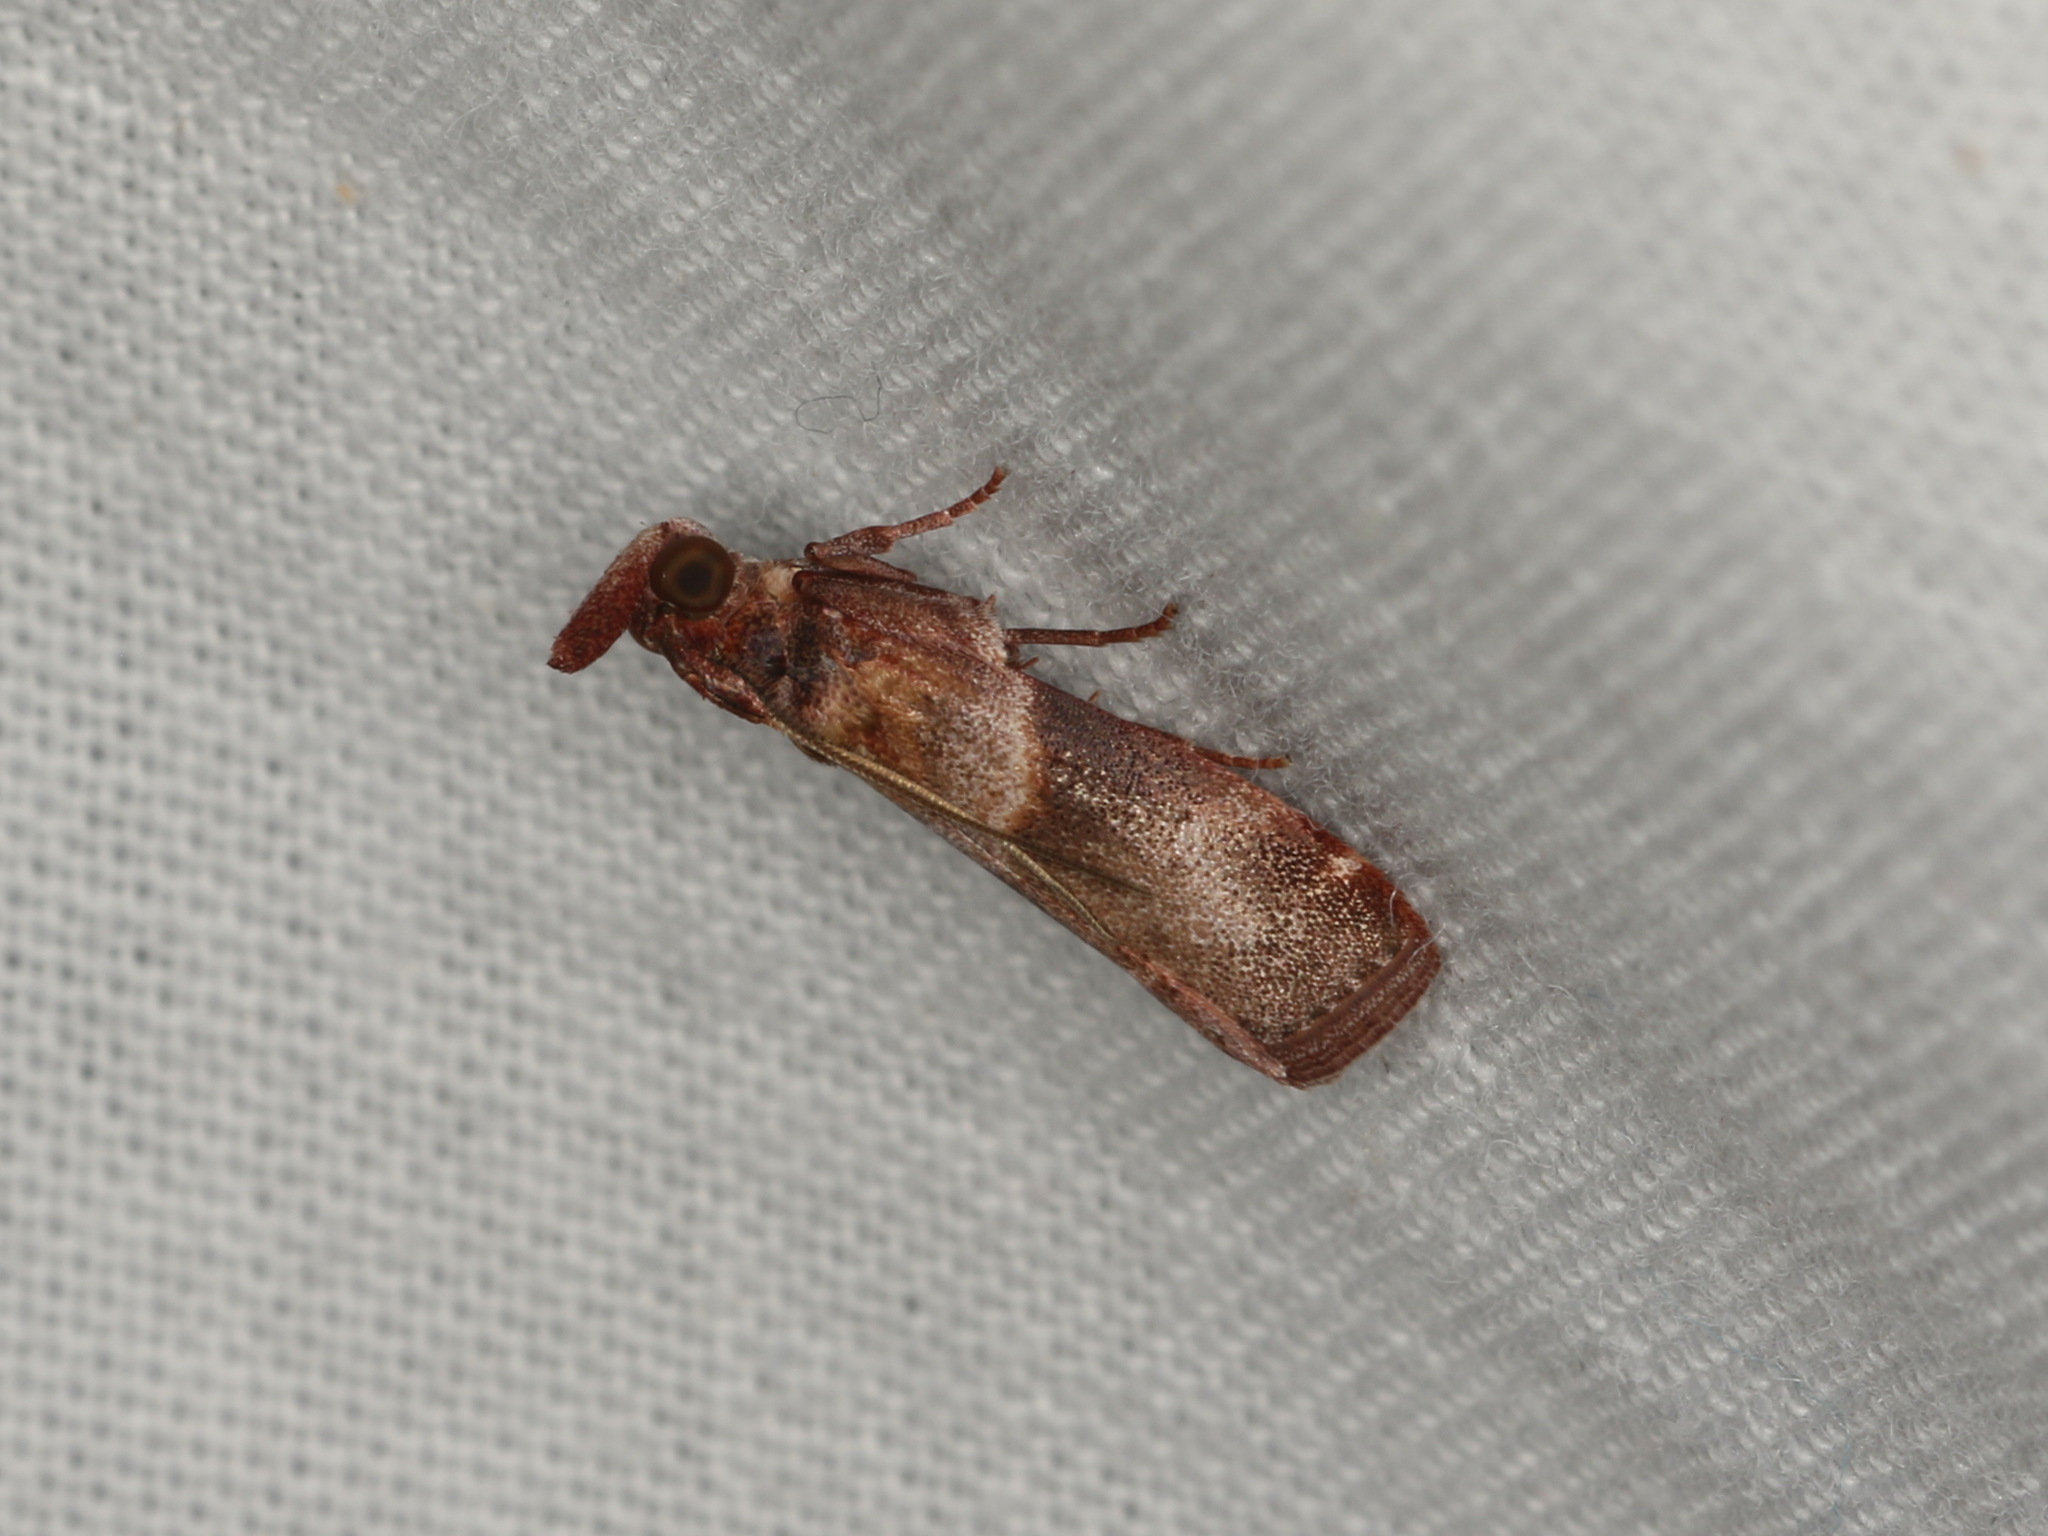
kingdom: Animalia
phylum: Arthropoda
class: Insecta
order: Lepidoptera
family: Pyralidae
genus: Calguia
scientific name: Calguia defiguralis
